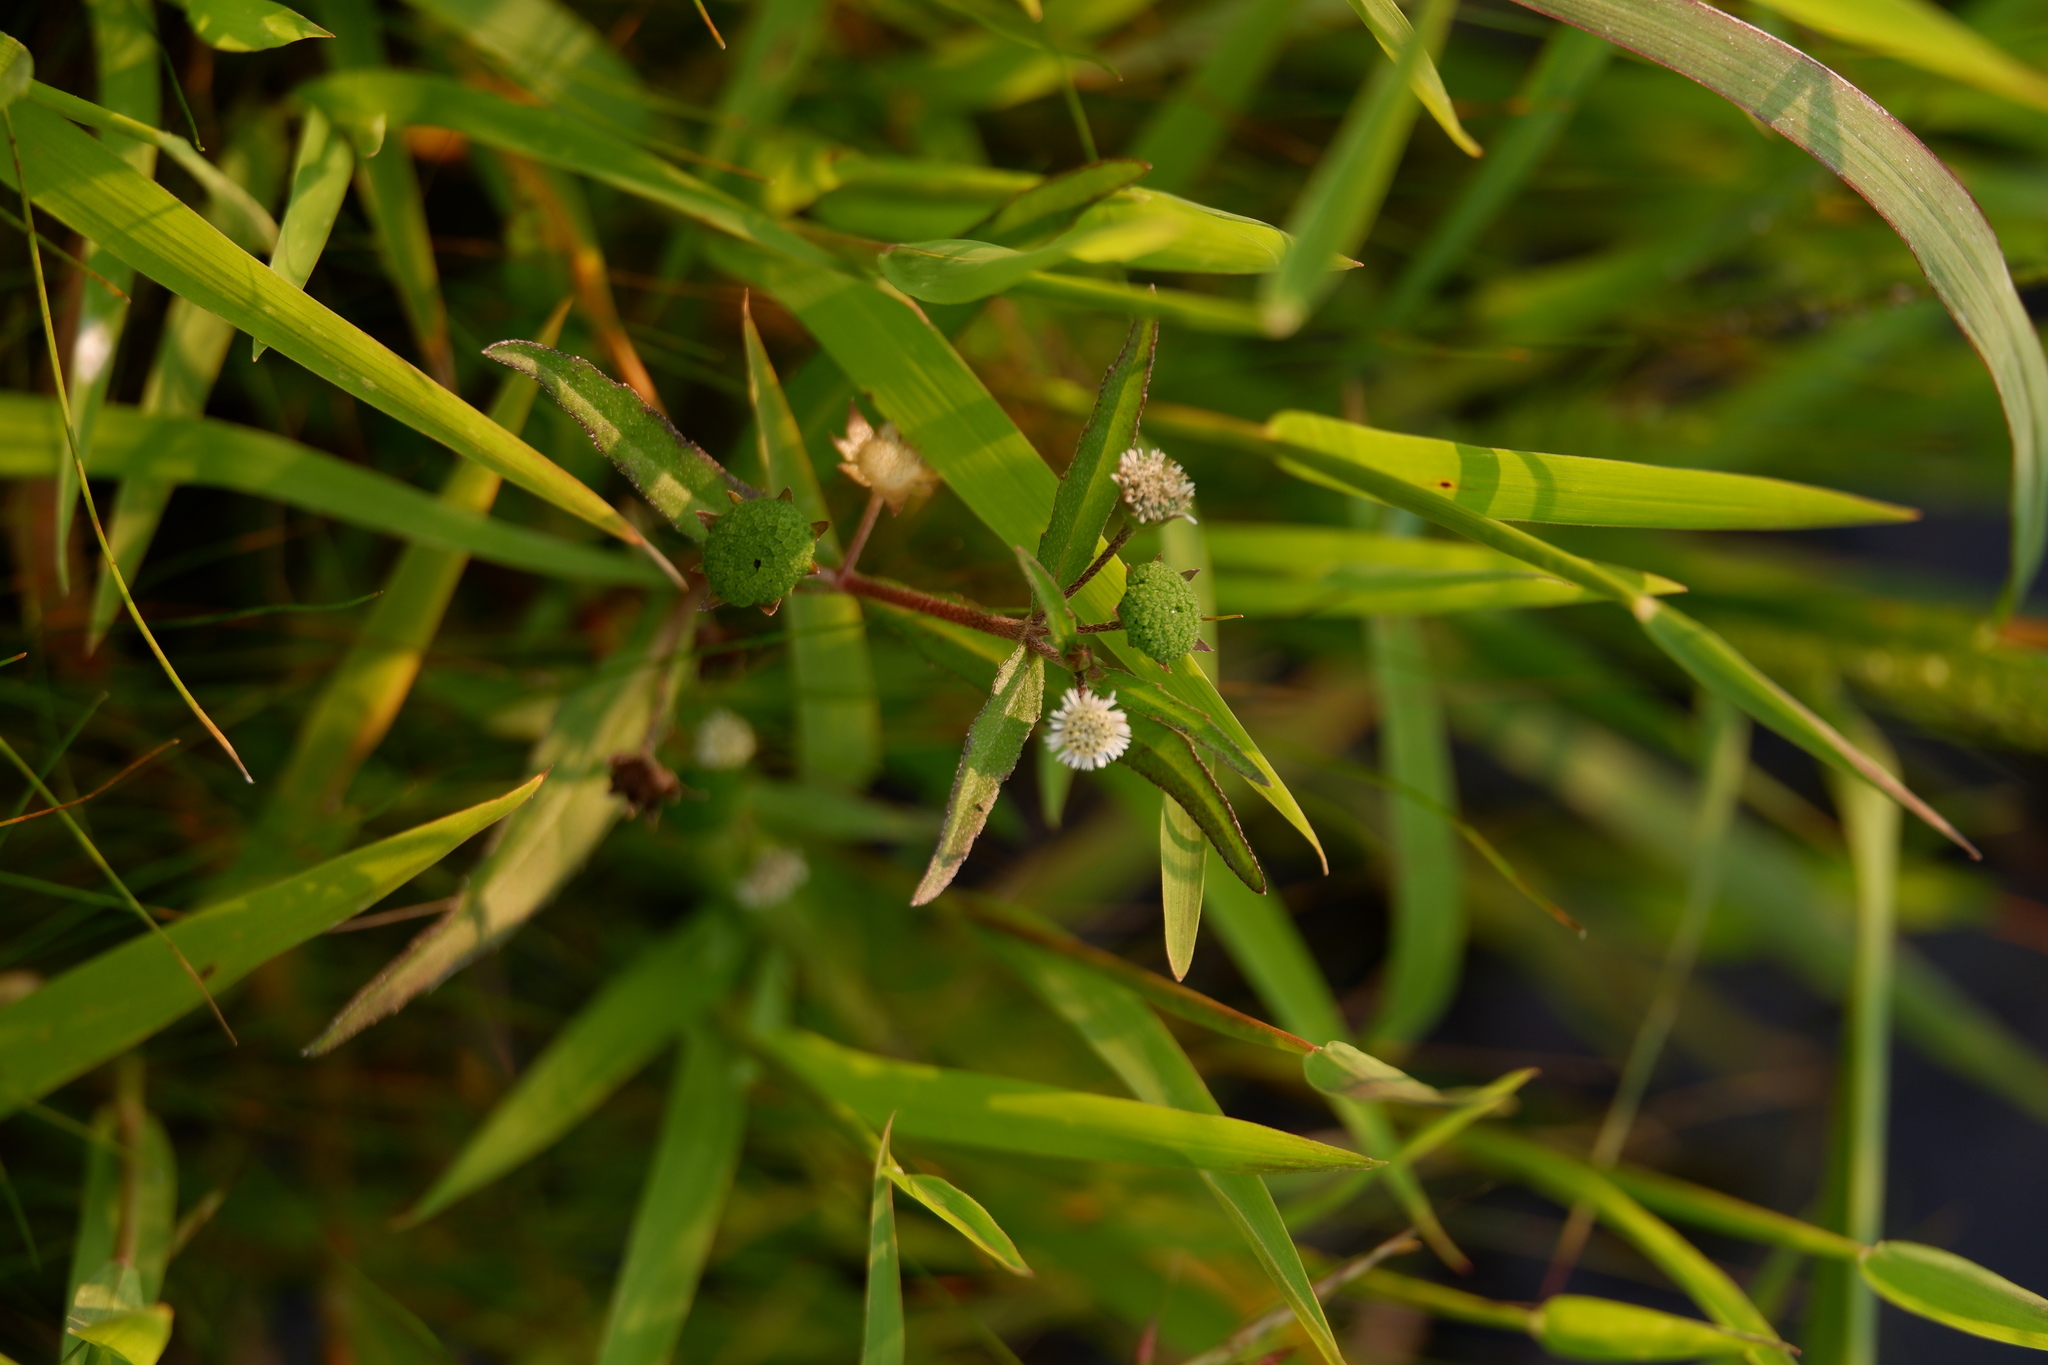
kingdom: Plantae
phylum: Tracheophyta
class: Magnoliopsida
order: Asterales
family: Asteraceae
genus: Eclipta
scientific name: Eclipta prostrata
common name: False daisy
